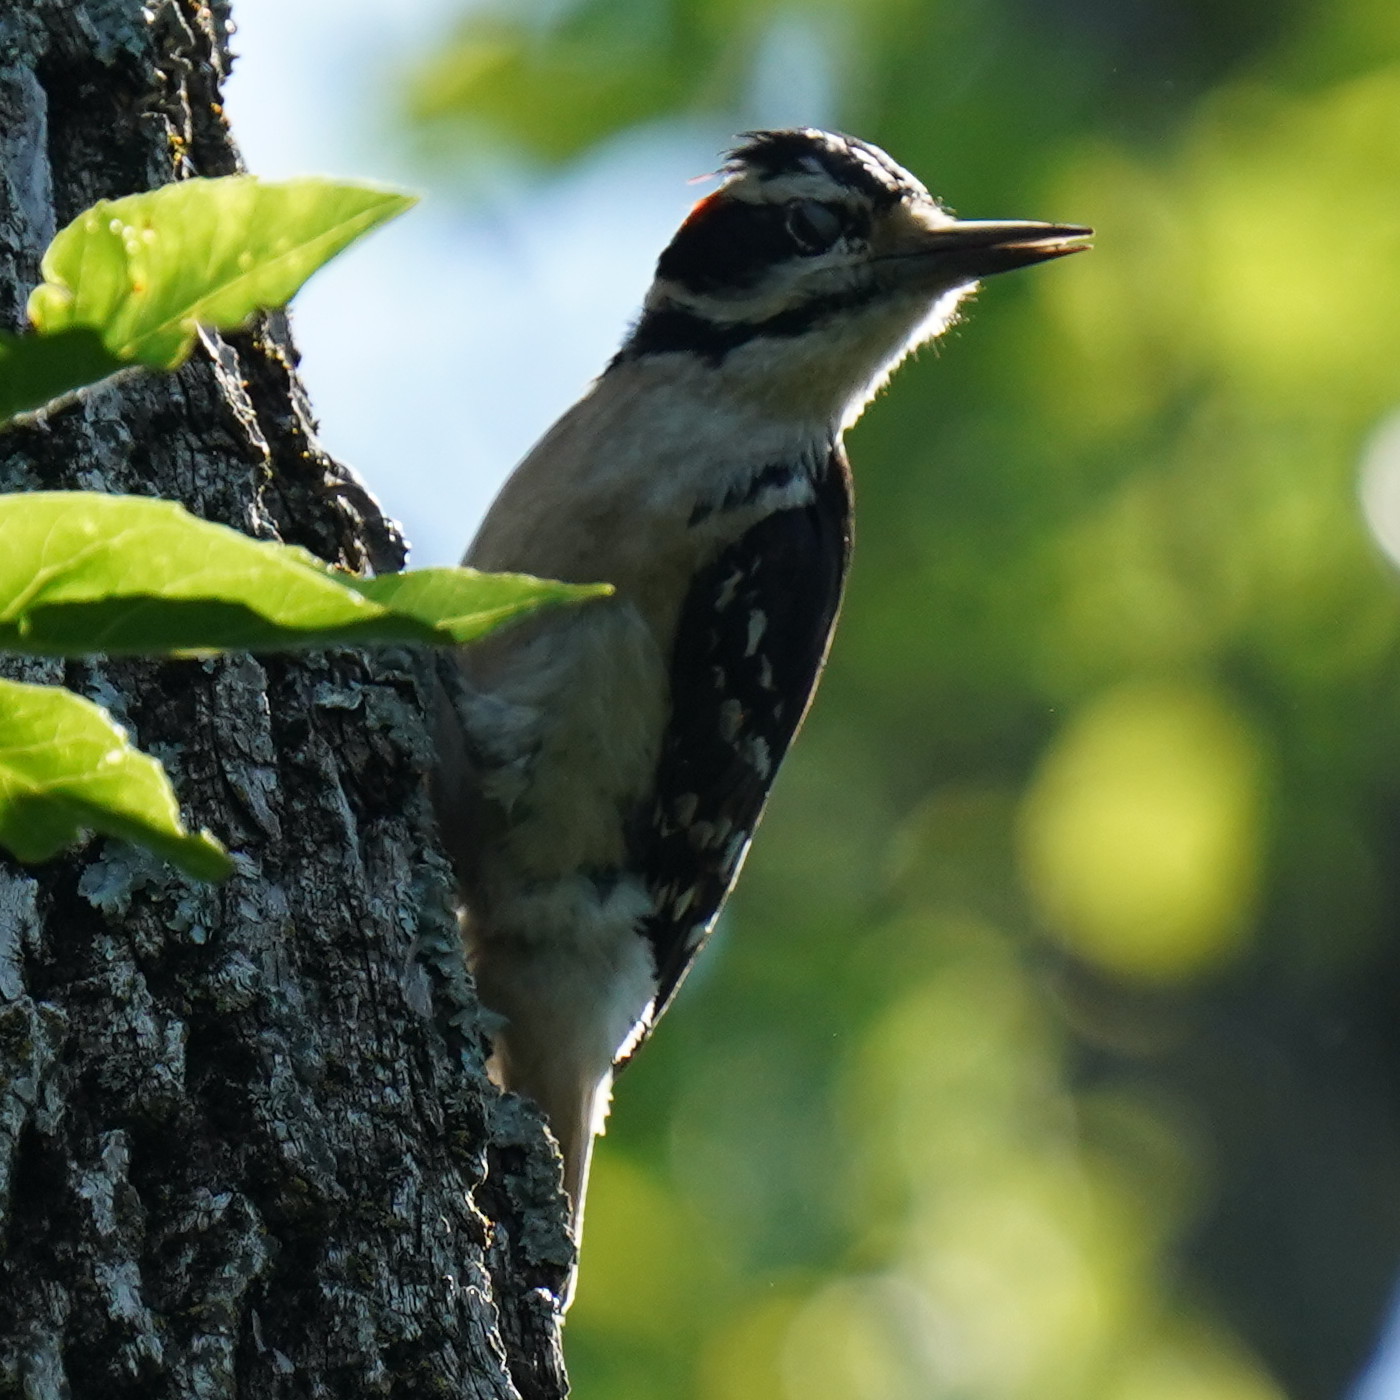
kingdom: Animalia
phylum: Chordata
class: Aves
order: Piciformes
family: Picidae
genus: Leuconotopicus
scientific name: Leuconotopicus villosus
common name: Hairy woodpecker
